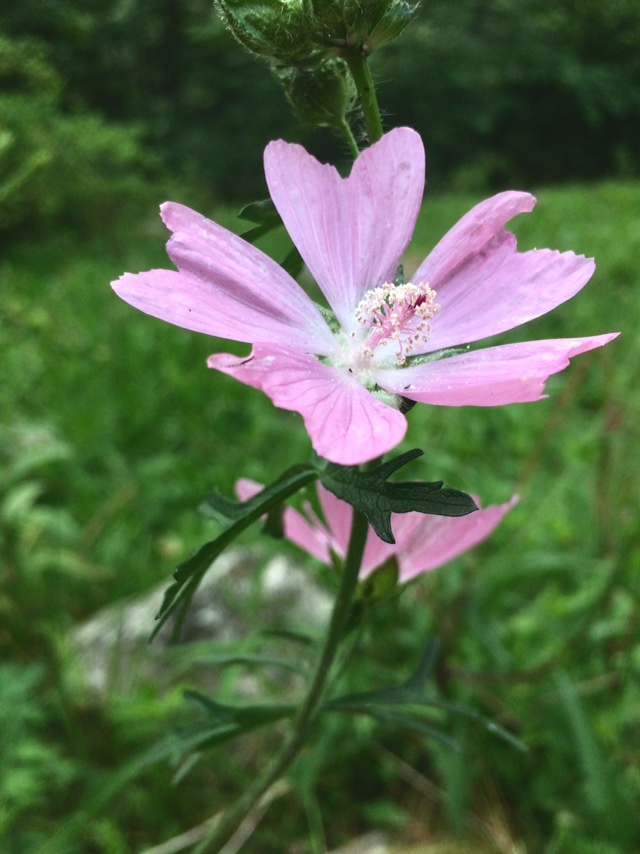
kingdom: Plantae
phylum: Tracheophyta
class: Magnoliopsida
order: Malvales
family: Malvaceae
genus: Malva
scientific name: Malva moschata
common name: Musk mallow
